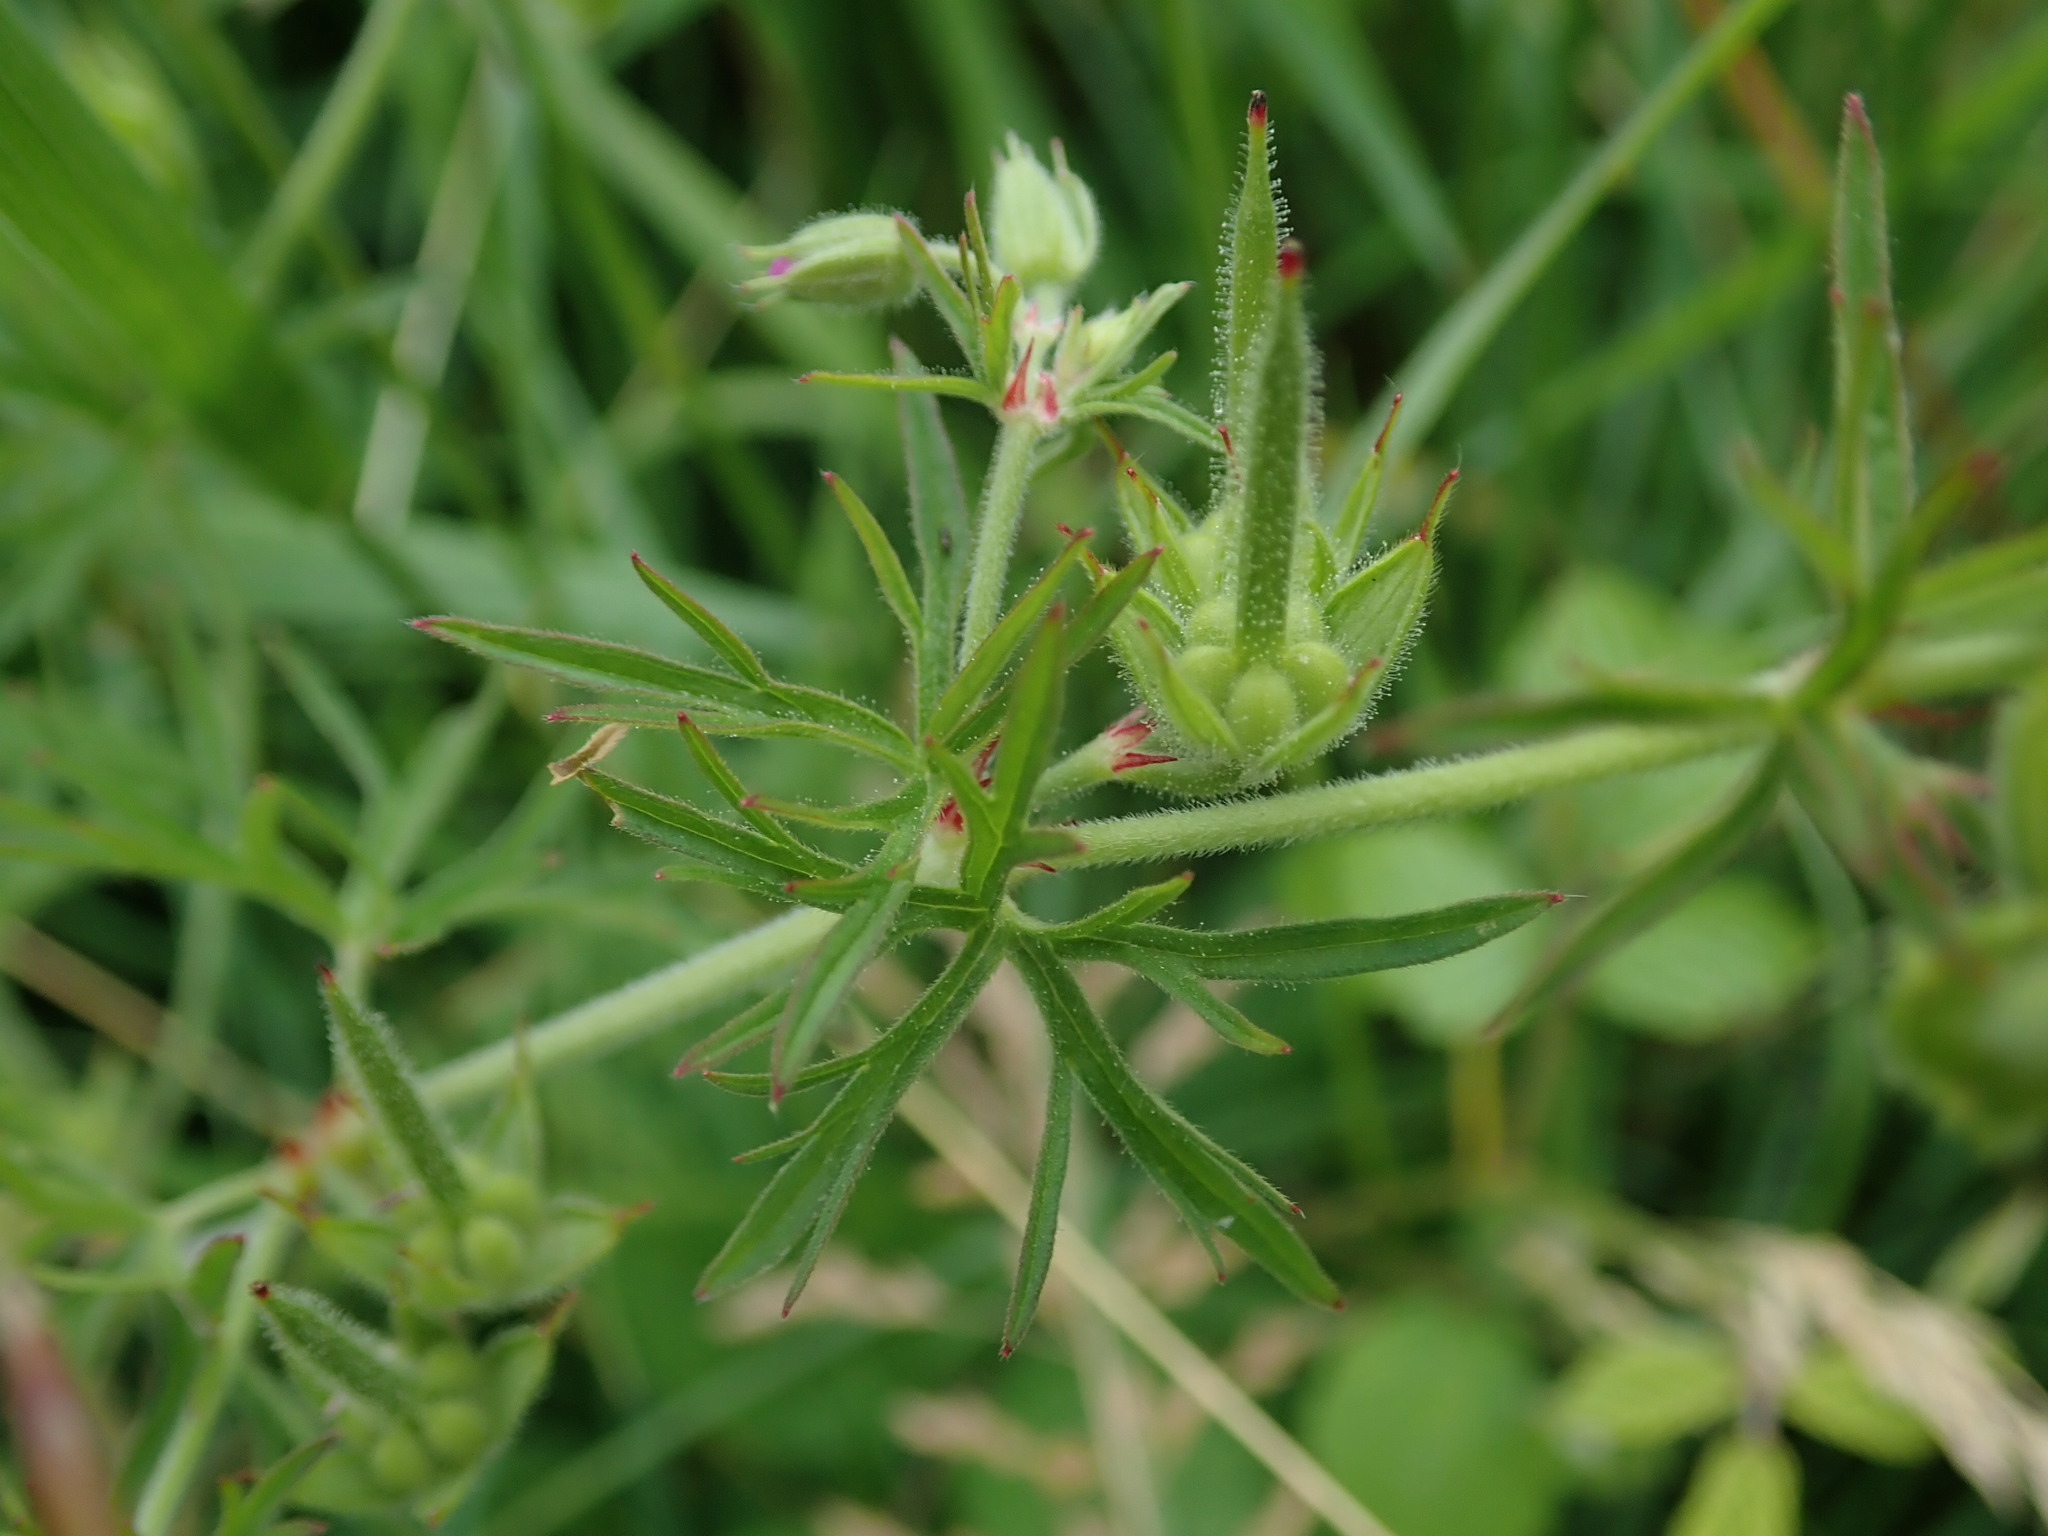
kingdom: Plantae
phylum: Tracheophyta
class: Magnoliopsida
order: Geraniales
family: Geraniaceae
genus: Geranium
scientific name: Geranium dissectum
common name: Cut-leaved crane's-bill
